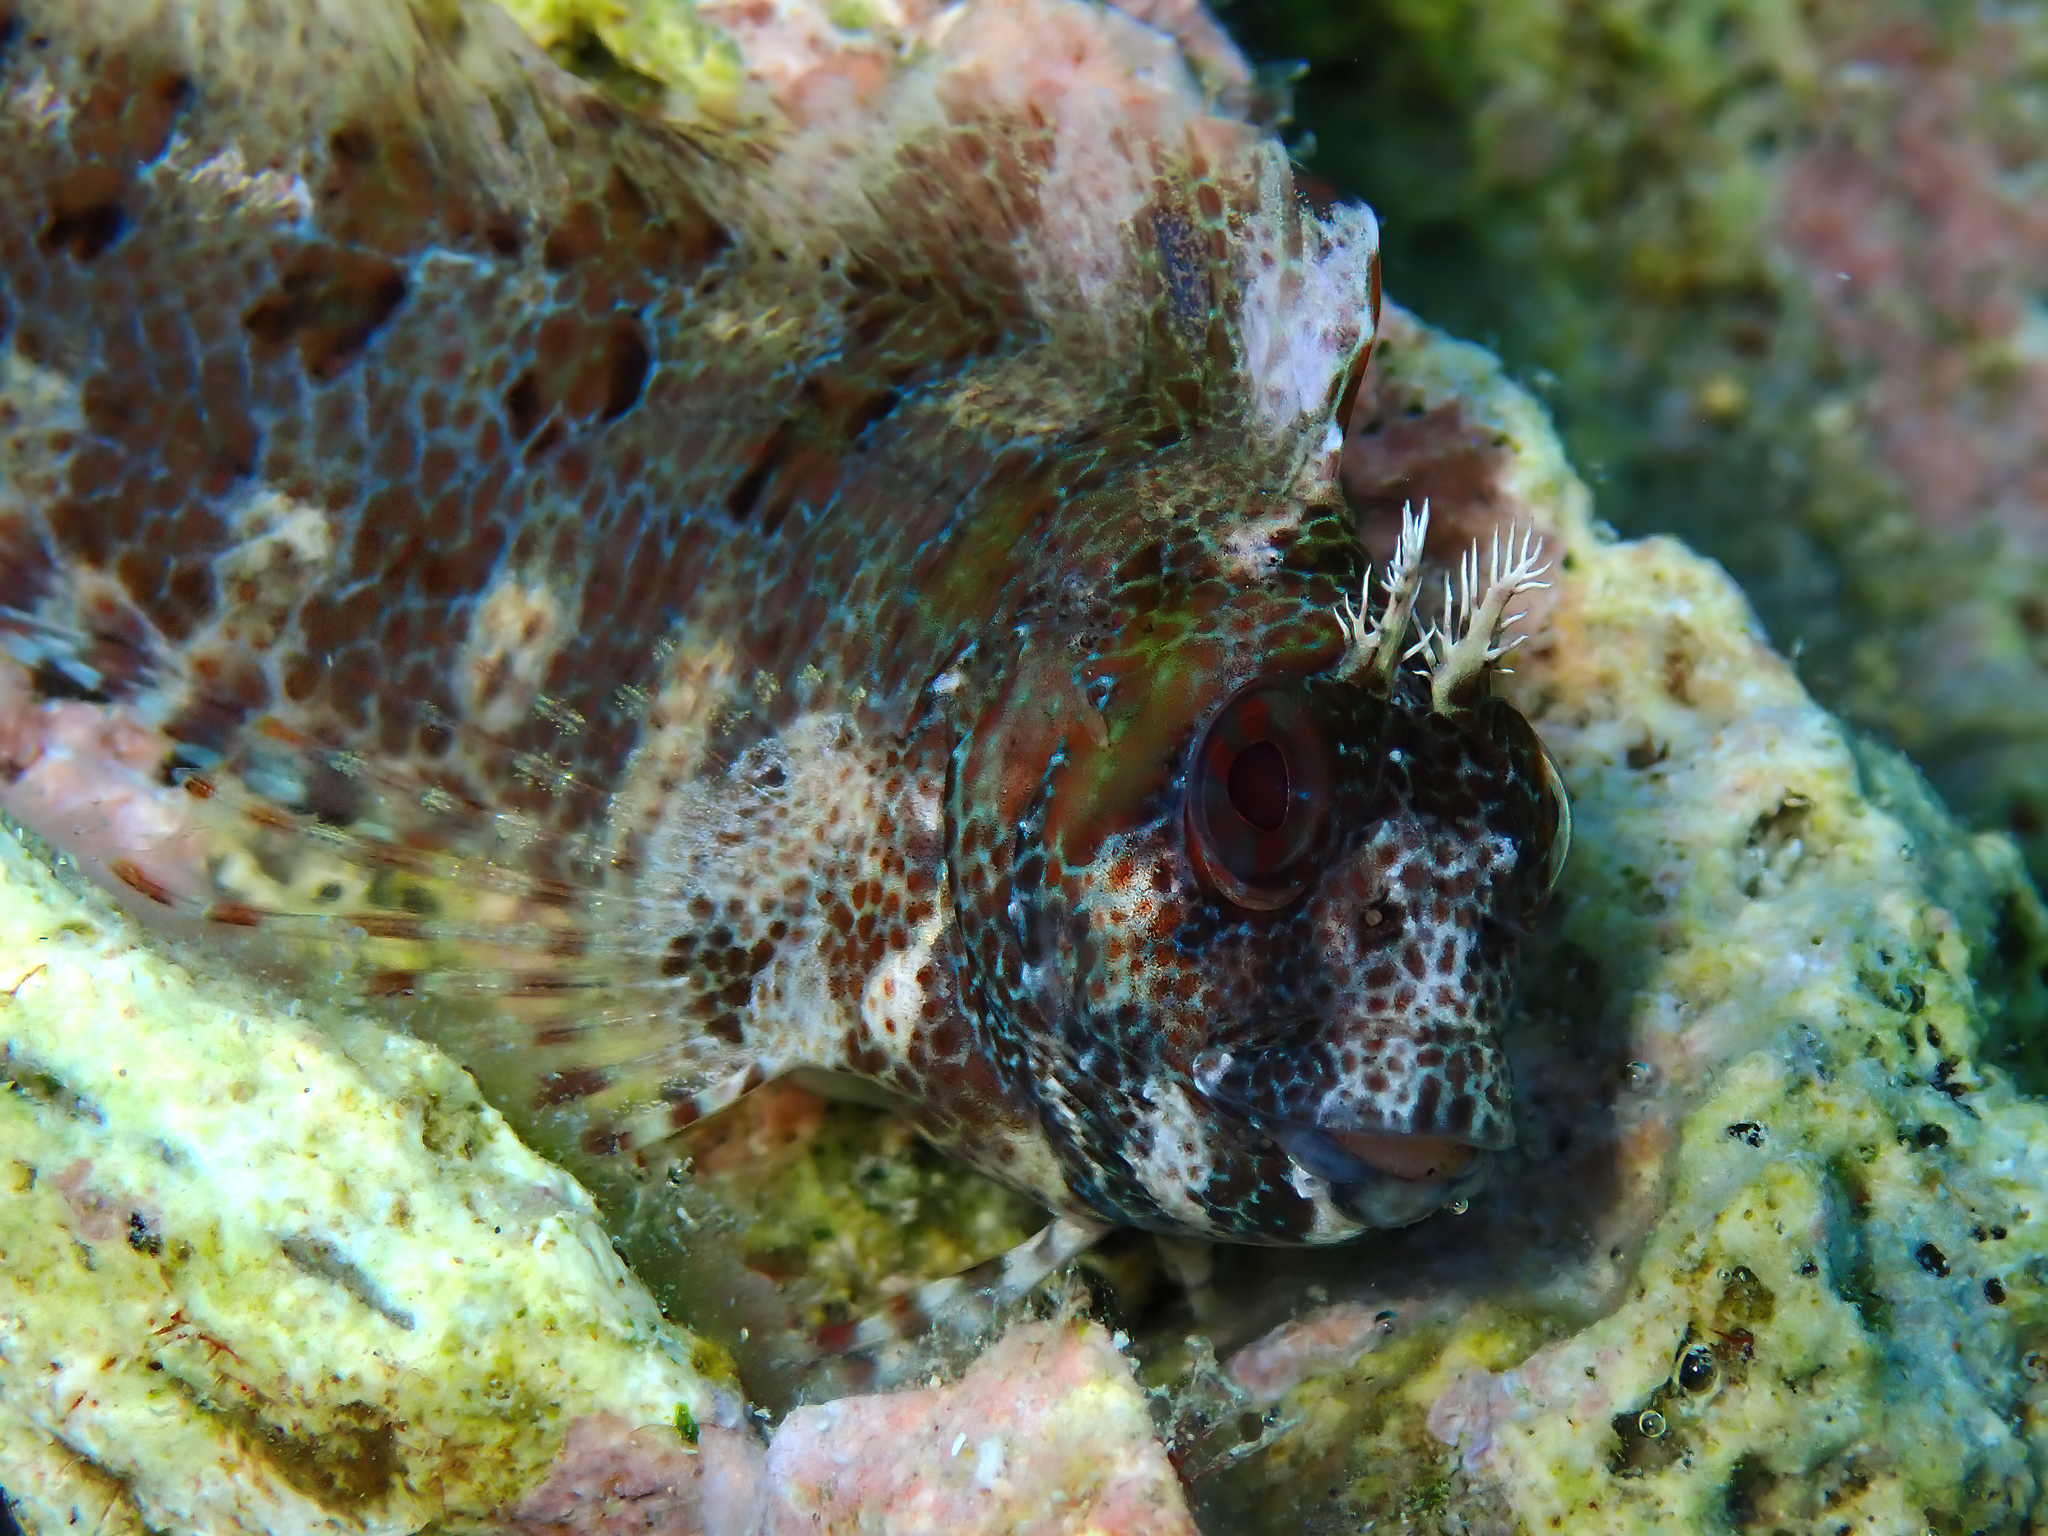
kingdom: Animalia
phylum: Chordata
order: Perciformes
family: Blenniidae
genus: Parablennius
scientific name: Parablennius gattorugine
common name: Tompot blenny
